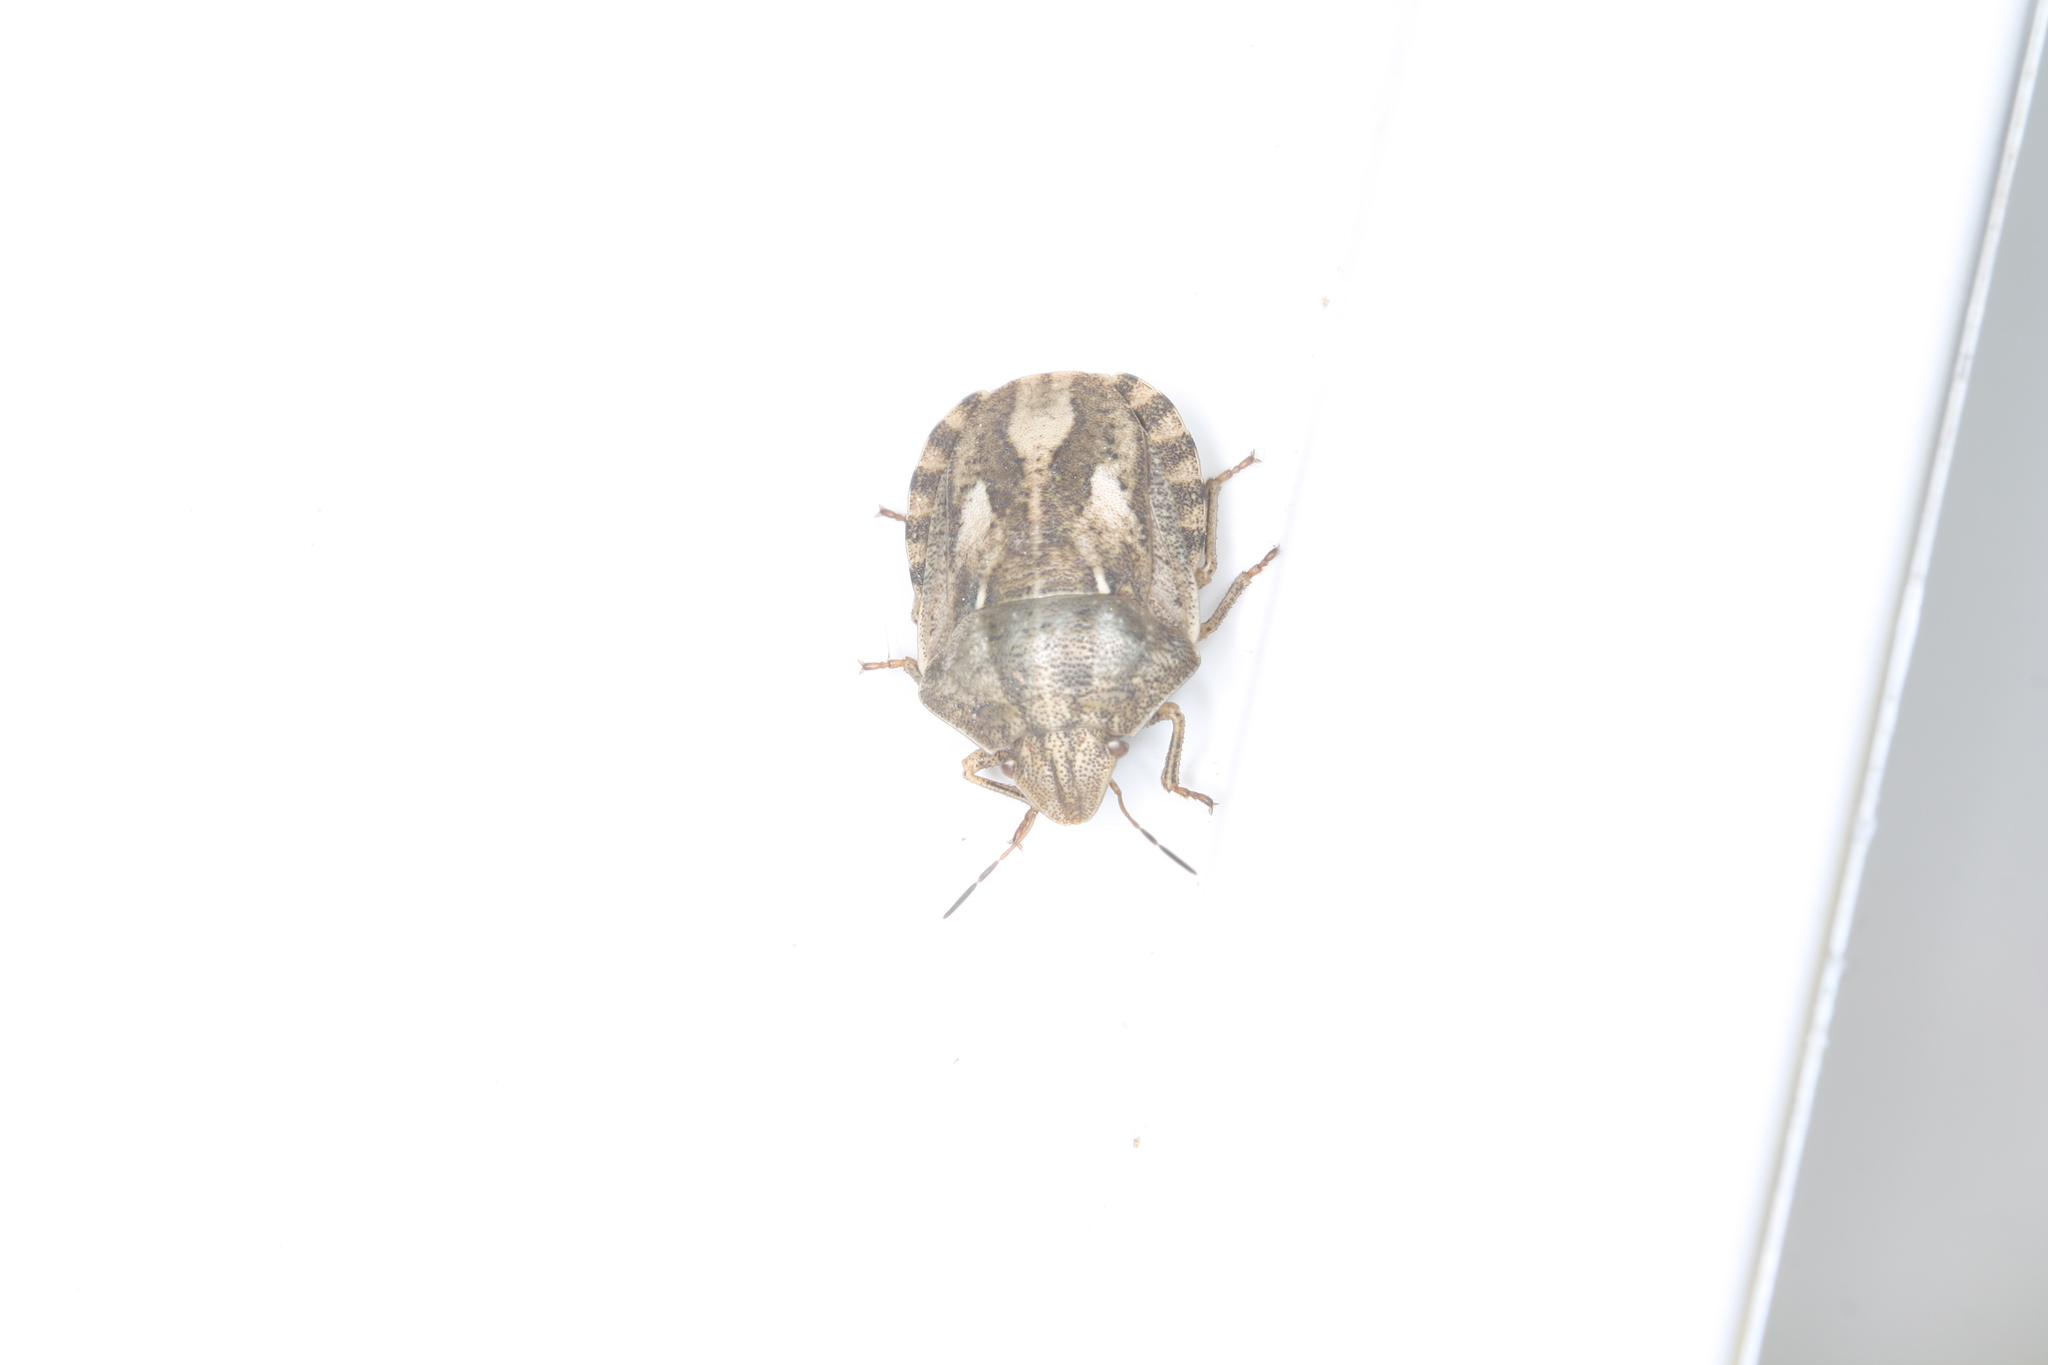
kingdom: Animalia
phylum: Arthropoda
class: Insecta
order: Hemiptera
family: Scutelleridae
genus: Eurygaster
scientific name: Eurygaster testudinaria
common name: Tortoise bug
